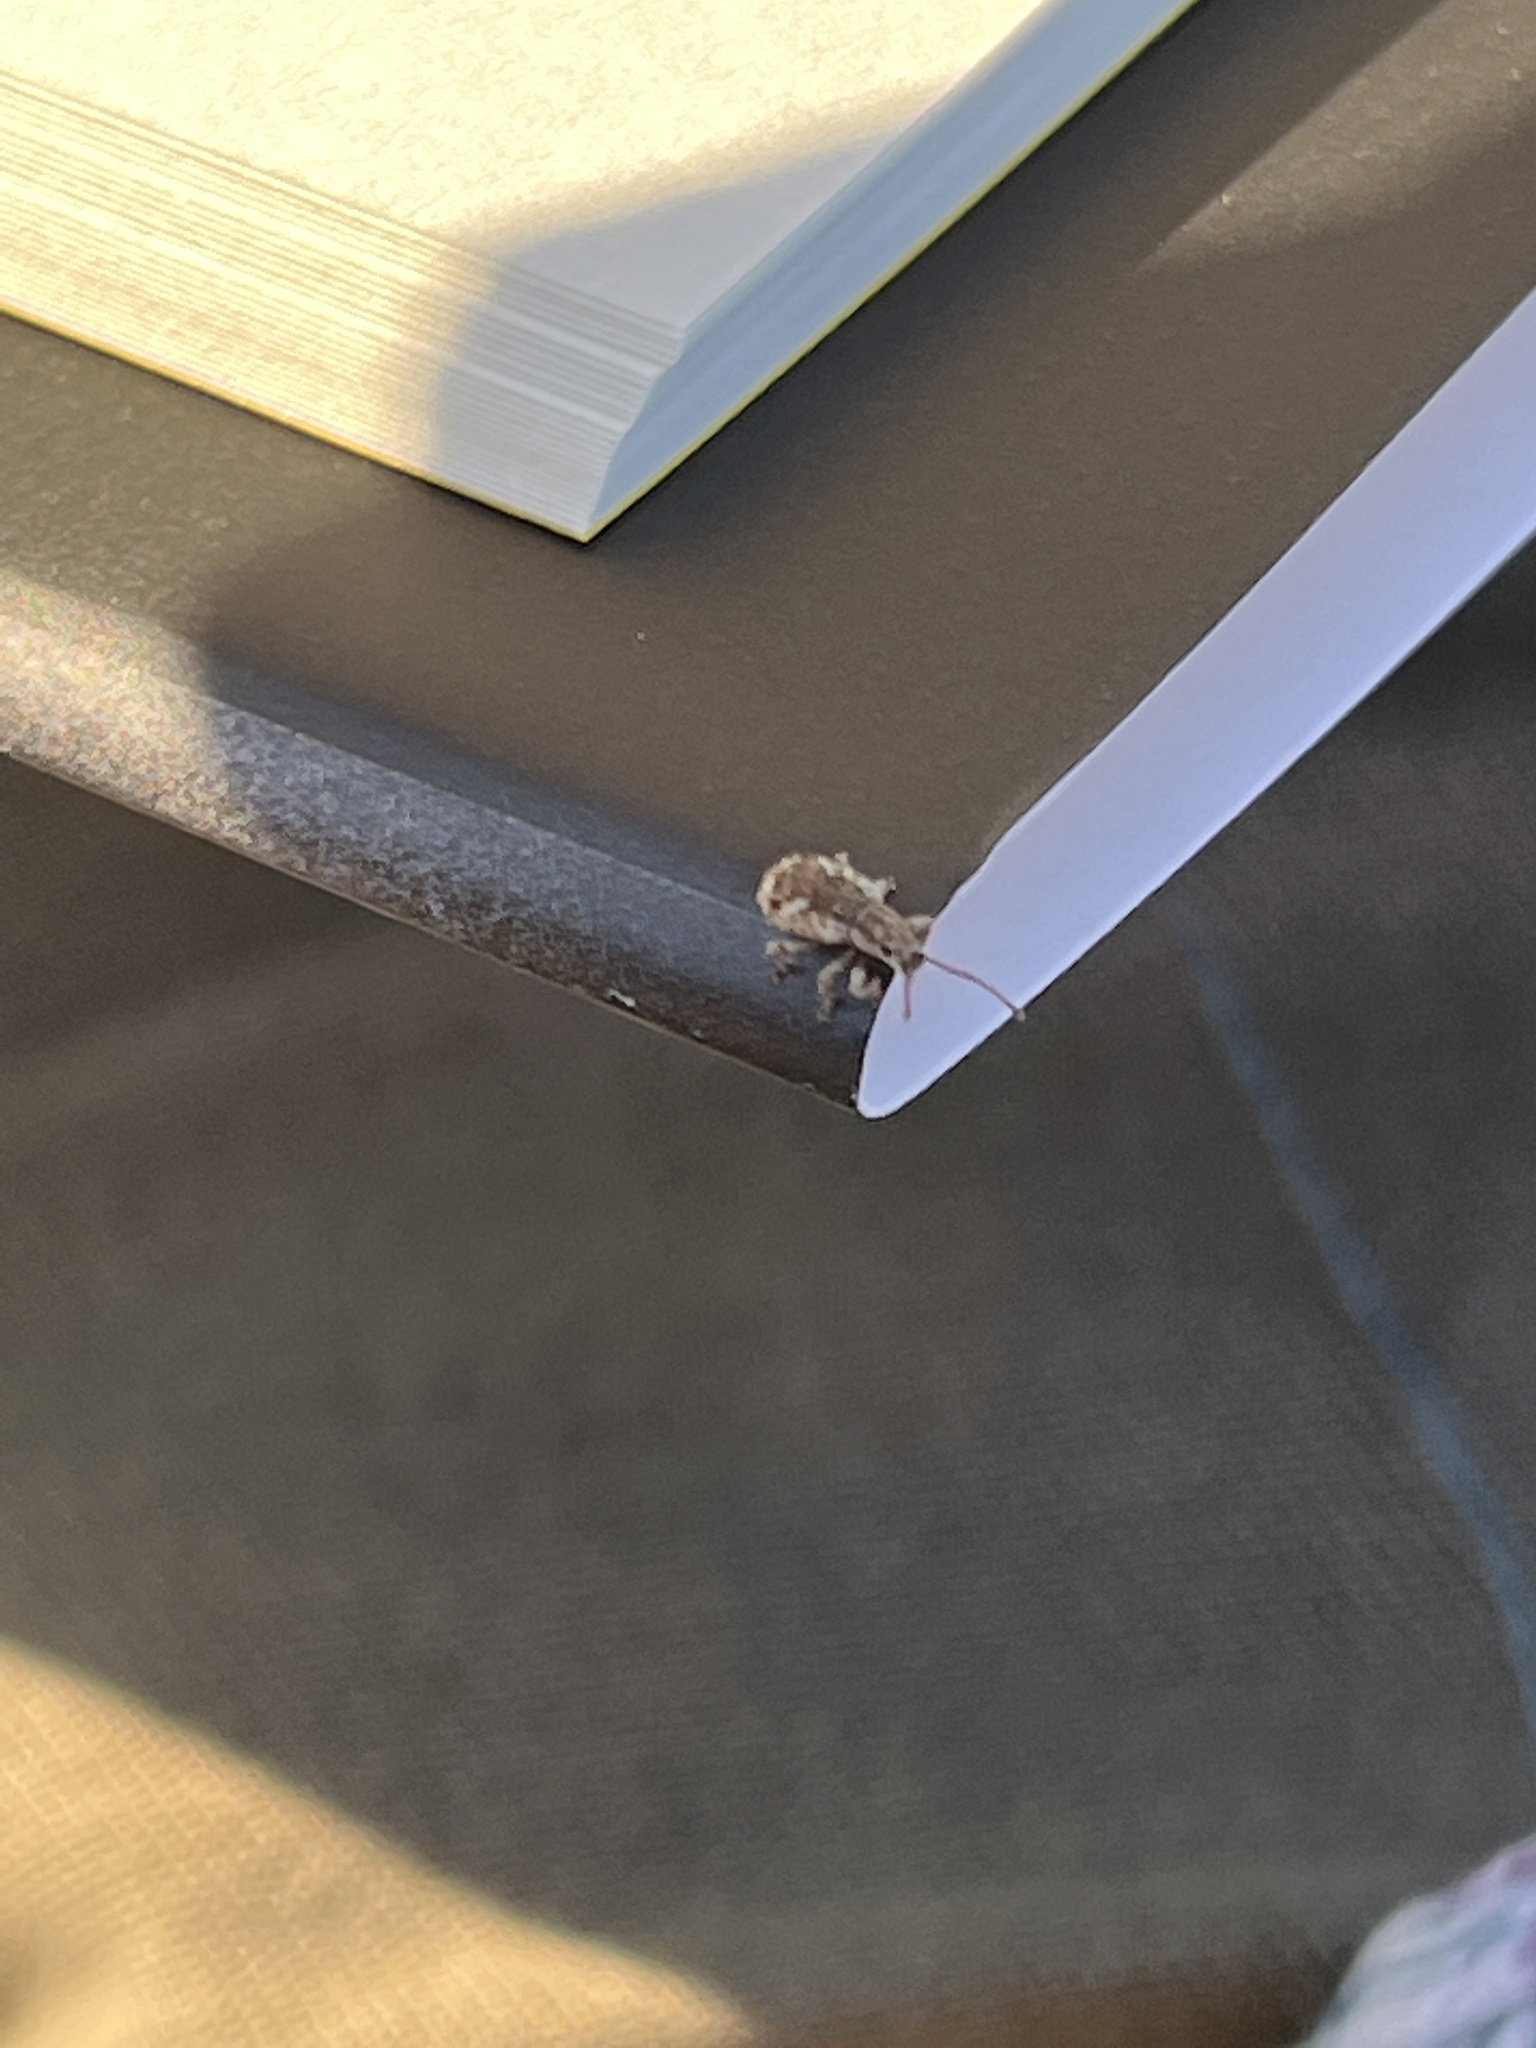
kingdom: Animalia
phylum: Arthropoda
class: Insecta
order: Coleoptera
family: Curculionidae
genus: Pseudoedophrys
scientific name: Pseudoedophrys hilleri
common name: Weevil
